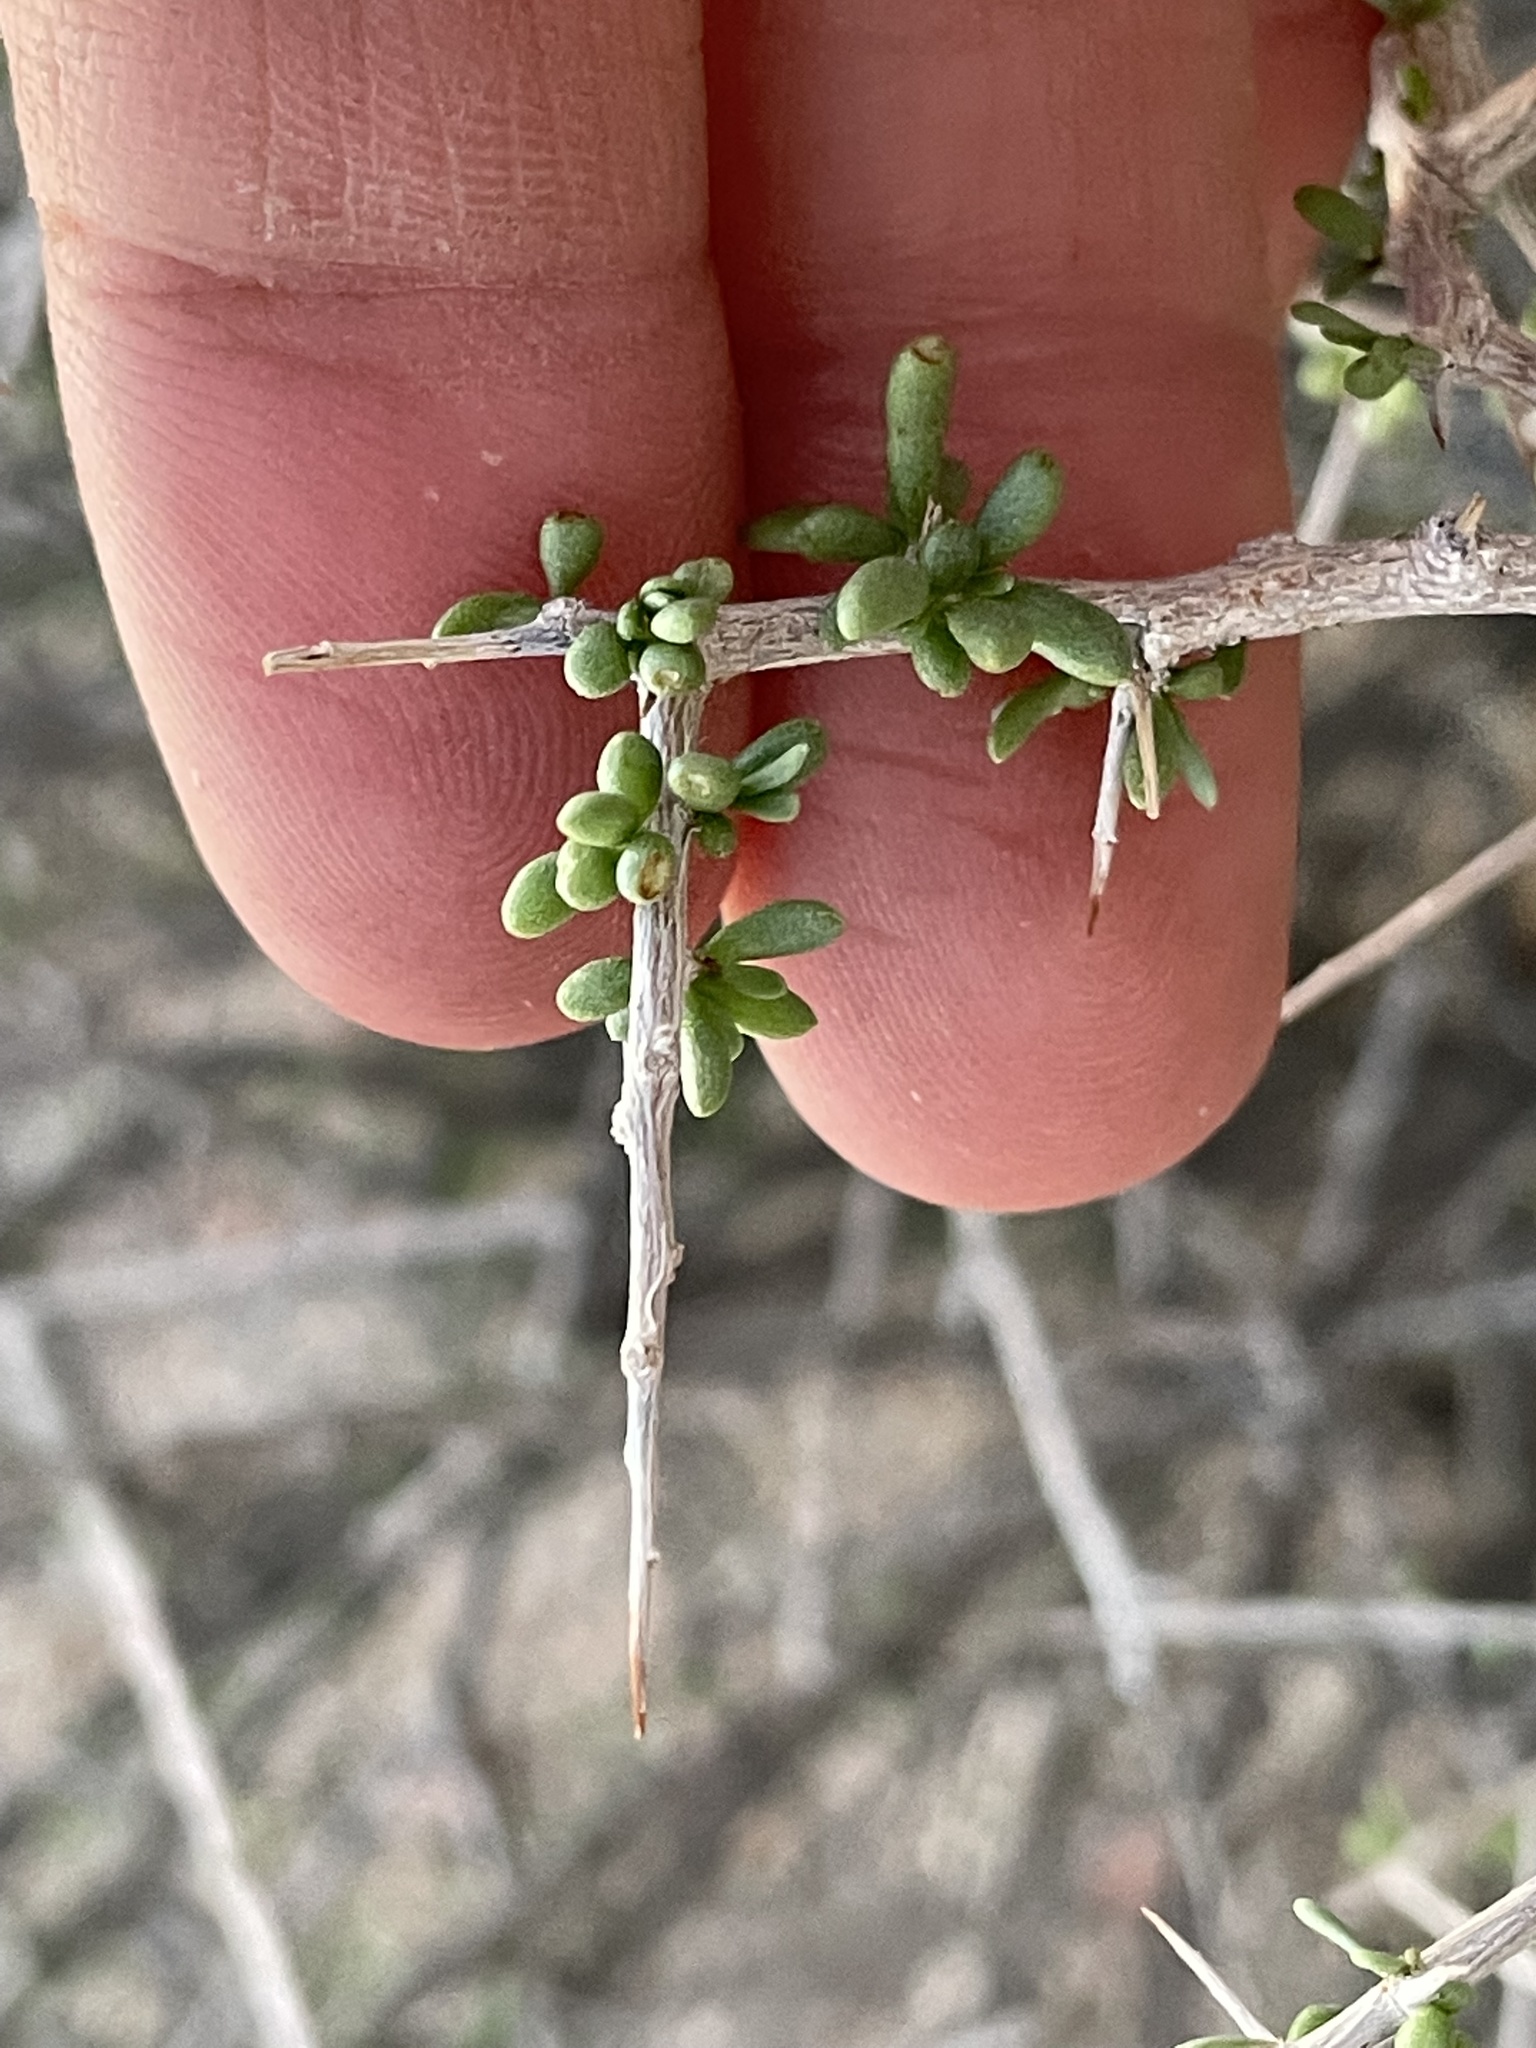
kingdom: Plantae
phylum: Tracheophyta
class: Magnoliopsida
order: Solanales
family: Solanaceae
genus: Lycium
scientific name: Lycium andersonii
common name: Water-jacket
